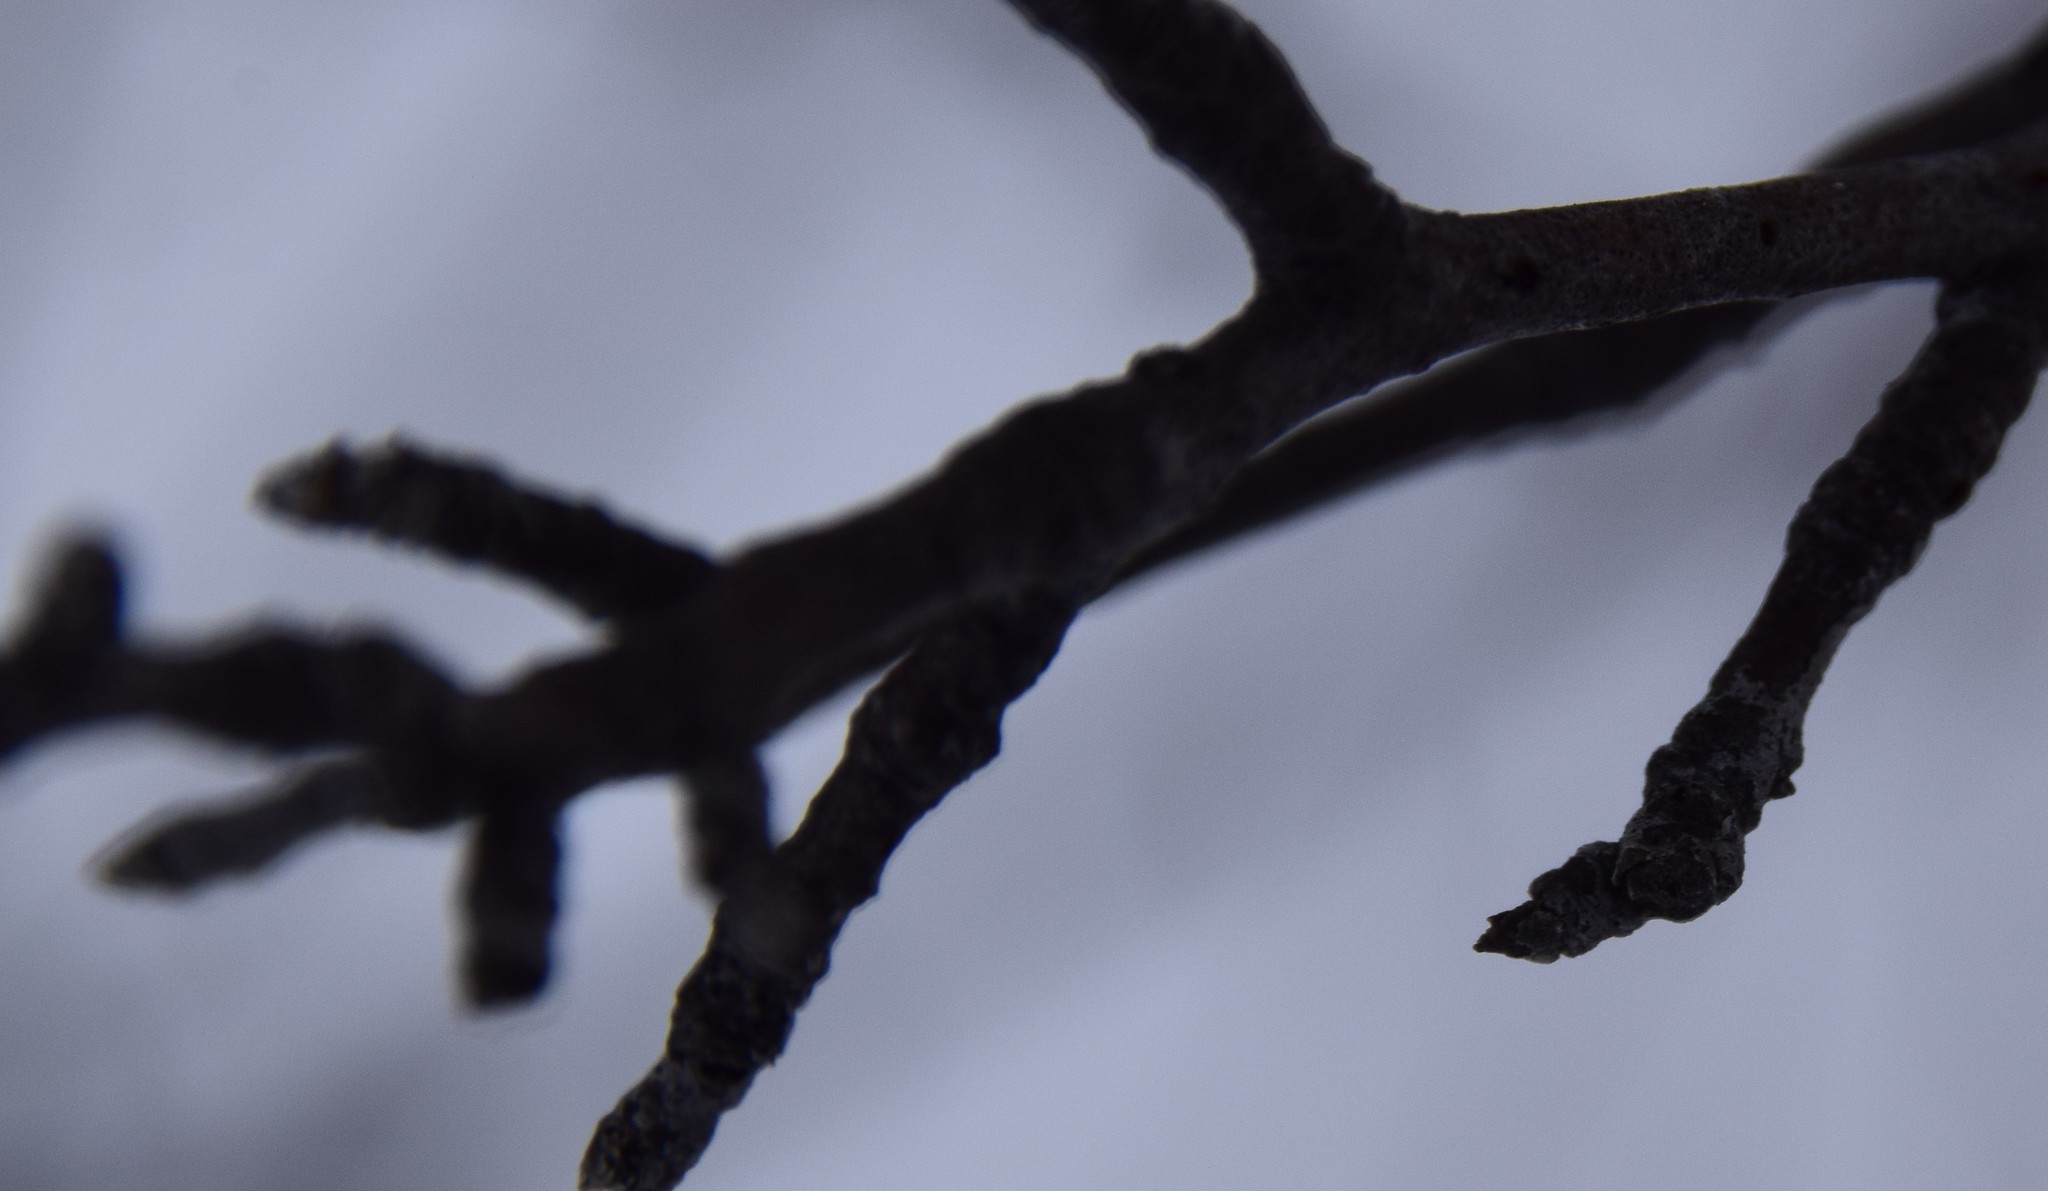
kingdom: Plantae
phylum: Tracheophyta
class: Magnoliopsida
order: Aquifoliales
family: Aquifoliaceae
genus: Ilex
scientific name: Ilex mucronata
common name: Catberry
